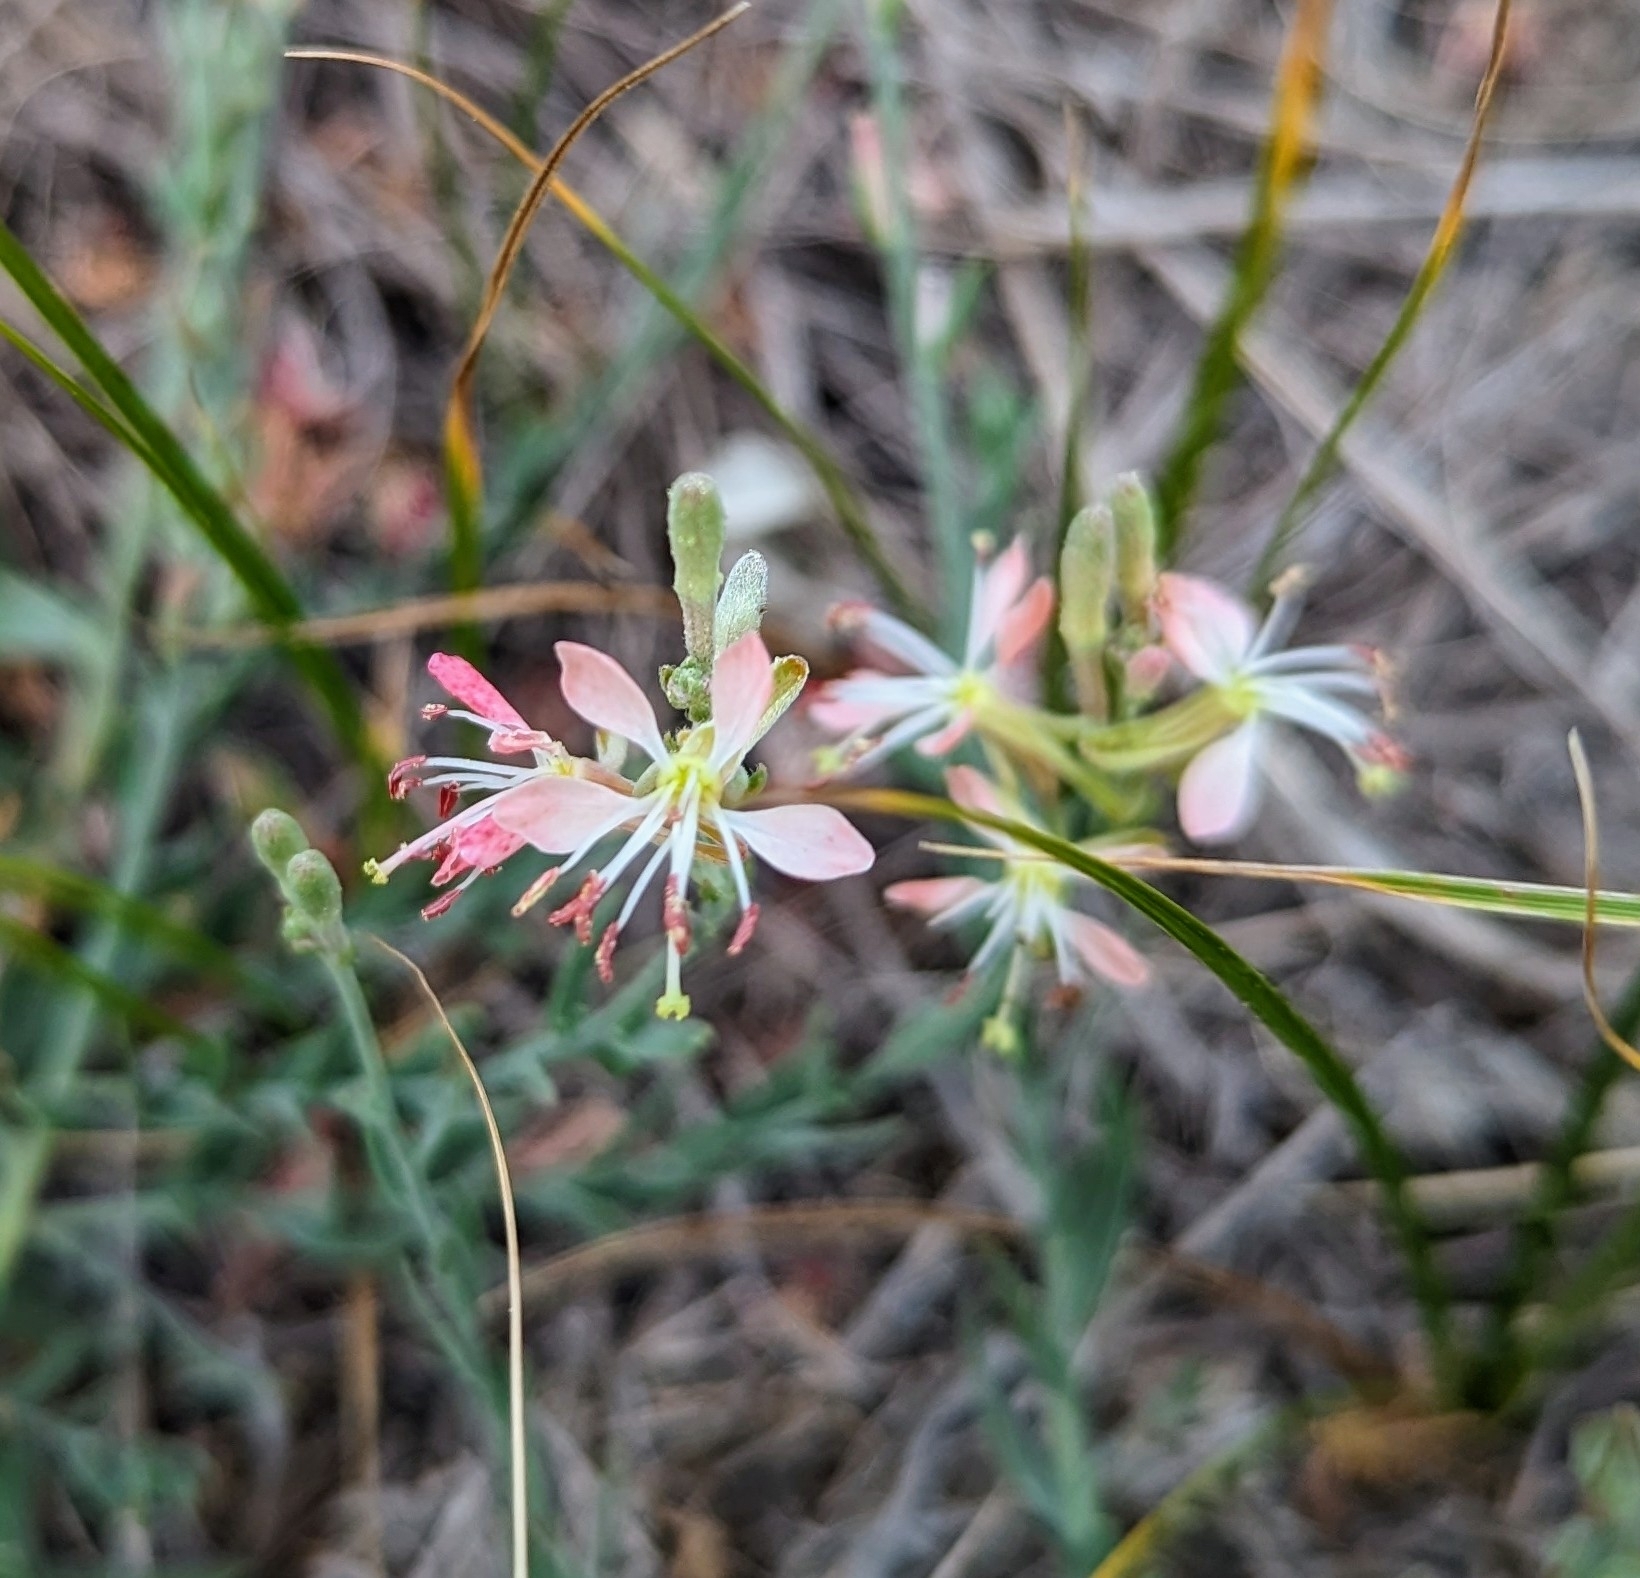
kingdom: Plantae
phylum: Tracheophyta
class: Magnoliopsida
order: Myrtales
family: Onagraceae
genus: Oenothera
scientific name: Oenothera suffrutescens
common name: Scarlet beeblossom
